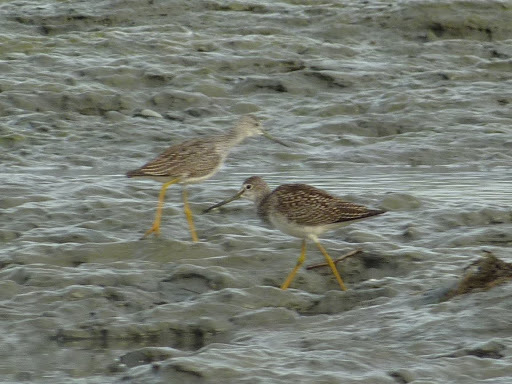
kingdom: Animalia
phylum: Chordata
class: Aves
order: Charadriiformes
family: Scolopacidae
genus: Tringa
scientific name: Tringa melanoleuca
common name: Greater yellowlegs
